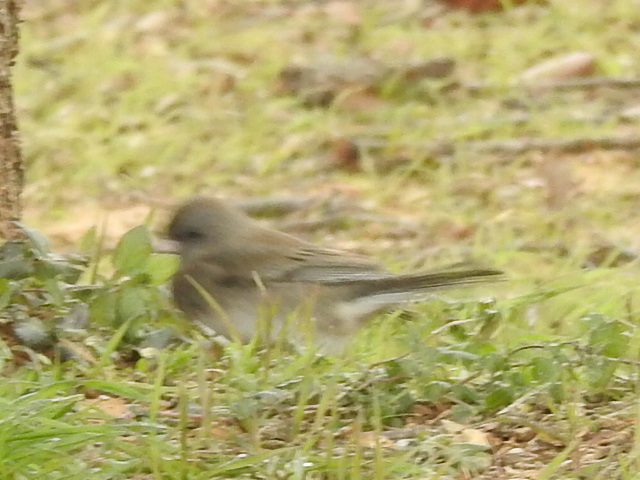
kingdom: Animalia
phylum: Chordata
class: Aves
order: Passeriformes
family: Passerellidae
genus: Junco
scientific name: Junco hyemalis
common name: Dark-eyed junco
